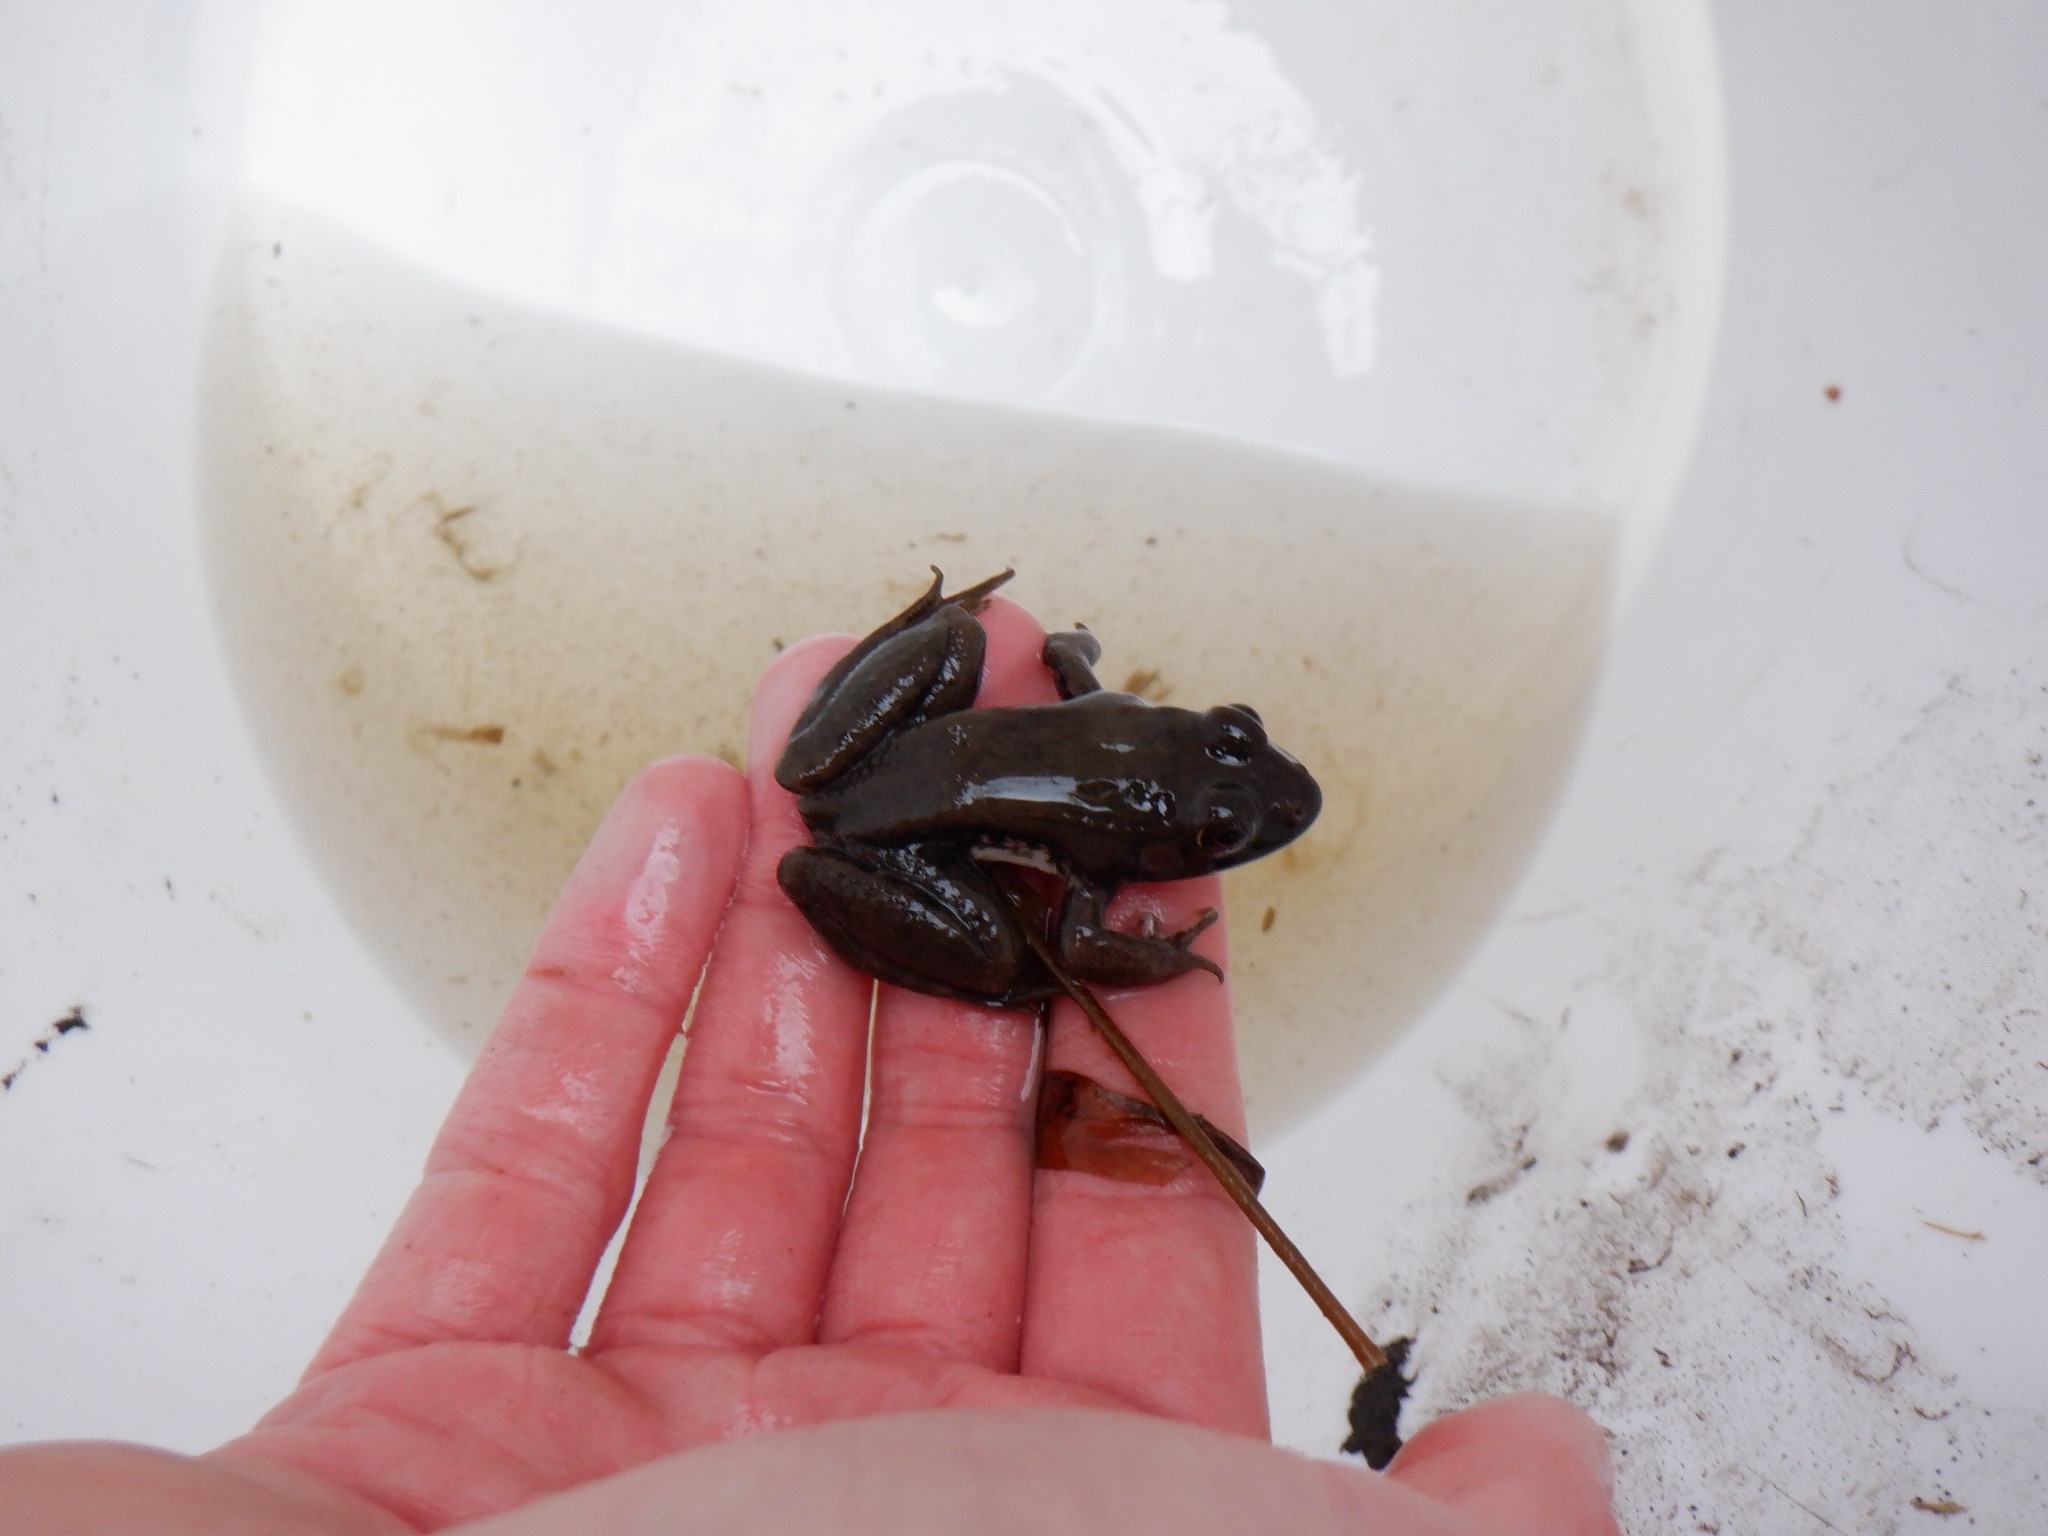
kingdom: Animalia
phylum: Chordata
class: Amphibia
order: Anura
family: Ranidae
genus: Lithobates
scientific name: Lithobates clamitans
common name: Green frog
